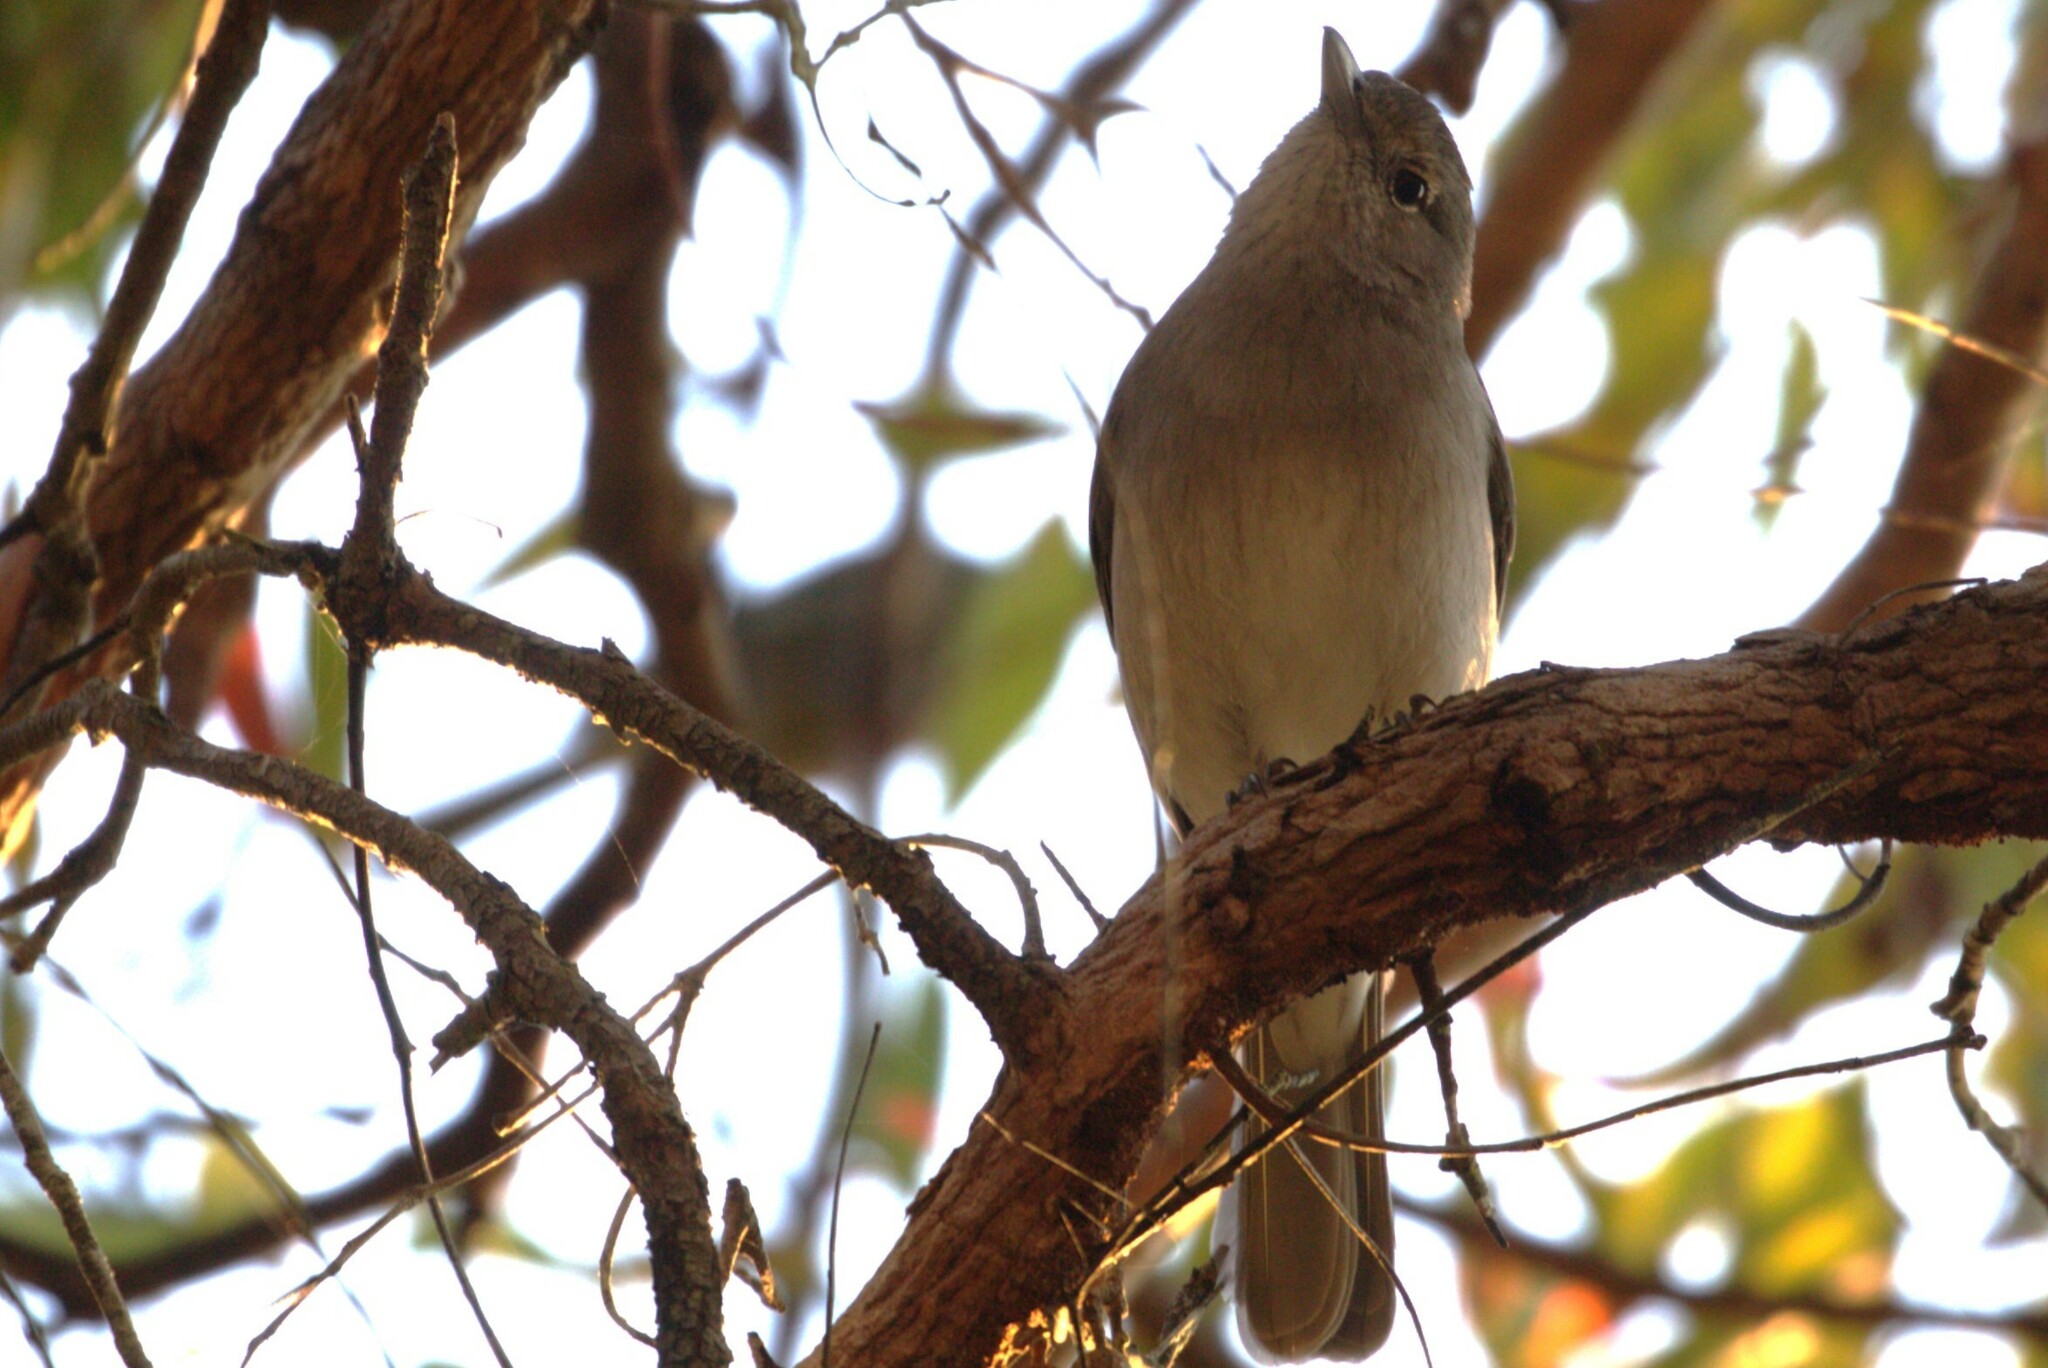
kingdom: Animalia
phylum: Chordata
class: Aves
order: Passeriformes
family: Pachycephalidae
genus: Colluricincla
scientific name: Colluricincla harmonica
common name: Grey shrikethrush
